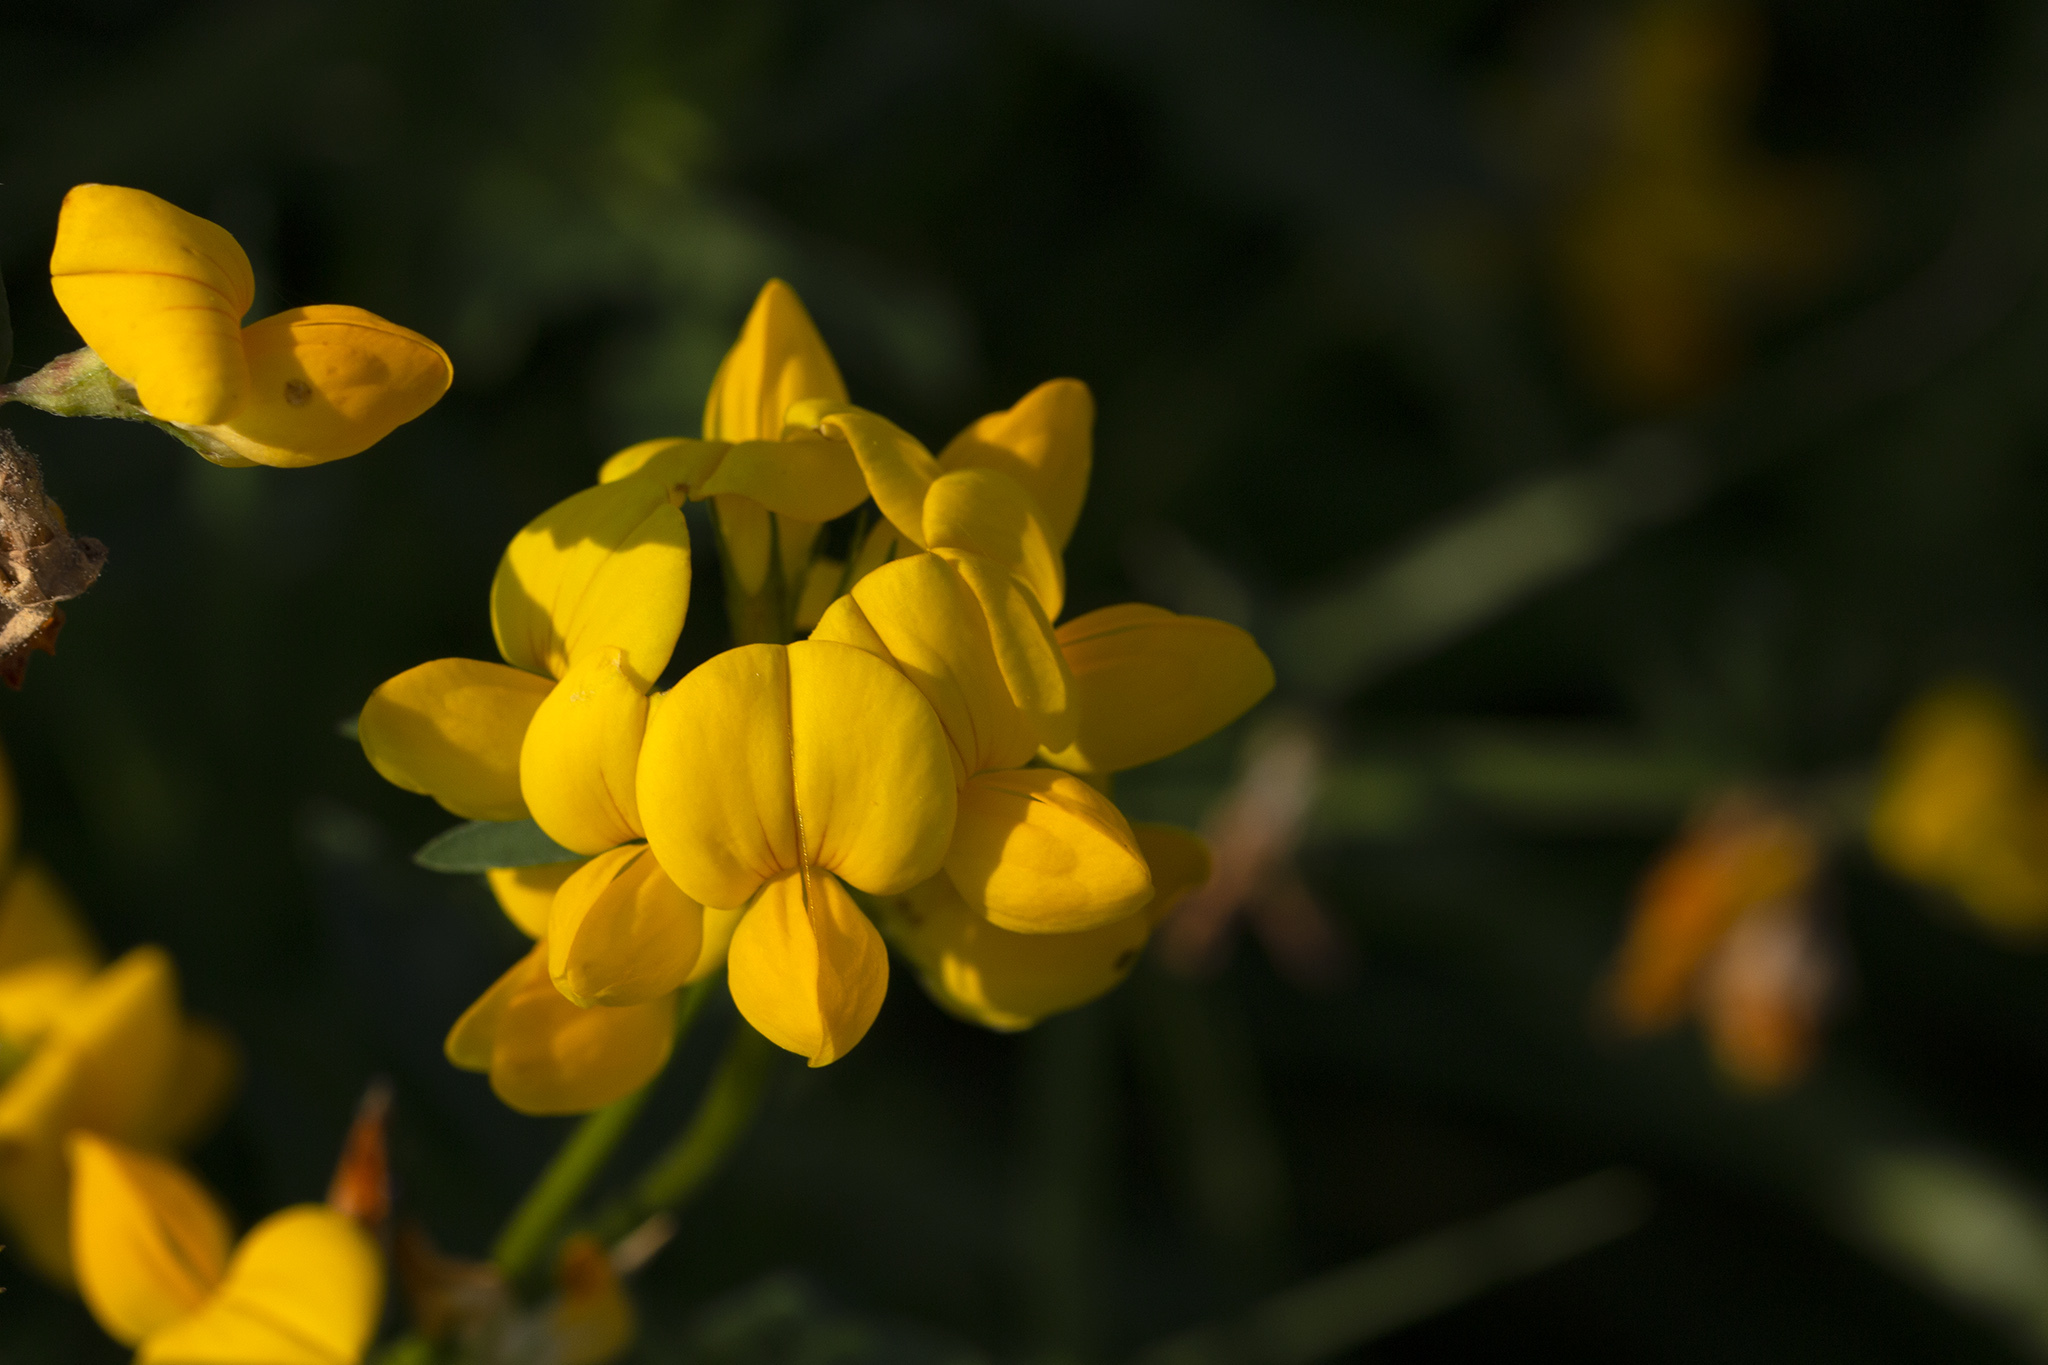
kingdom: Plantae
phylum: Tracheophyta
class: Magnoliopsida
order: Fabales
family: Fabaceae
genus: Lotus
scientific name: Lotus corniculatus
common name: Common bird's-foot-trefoil
